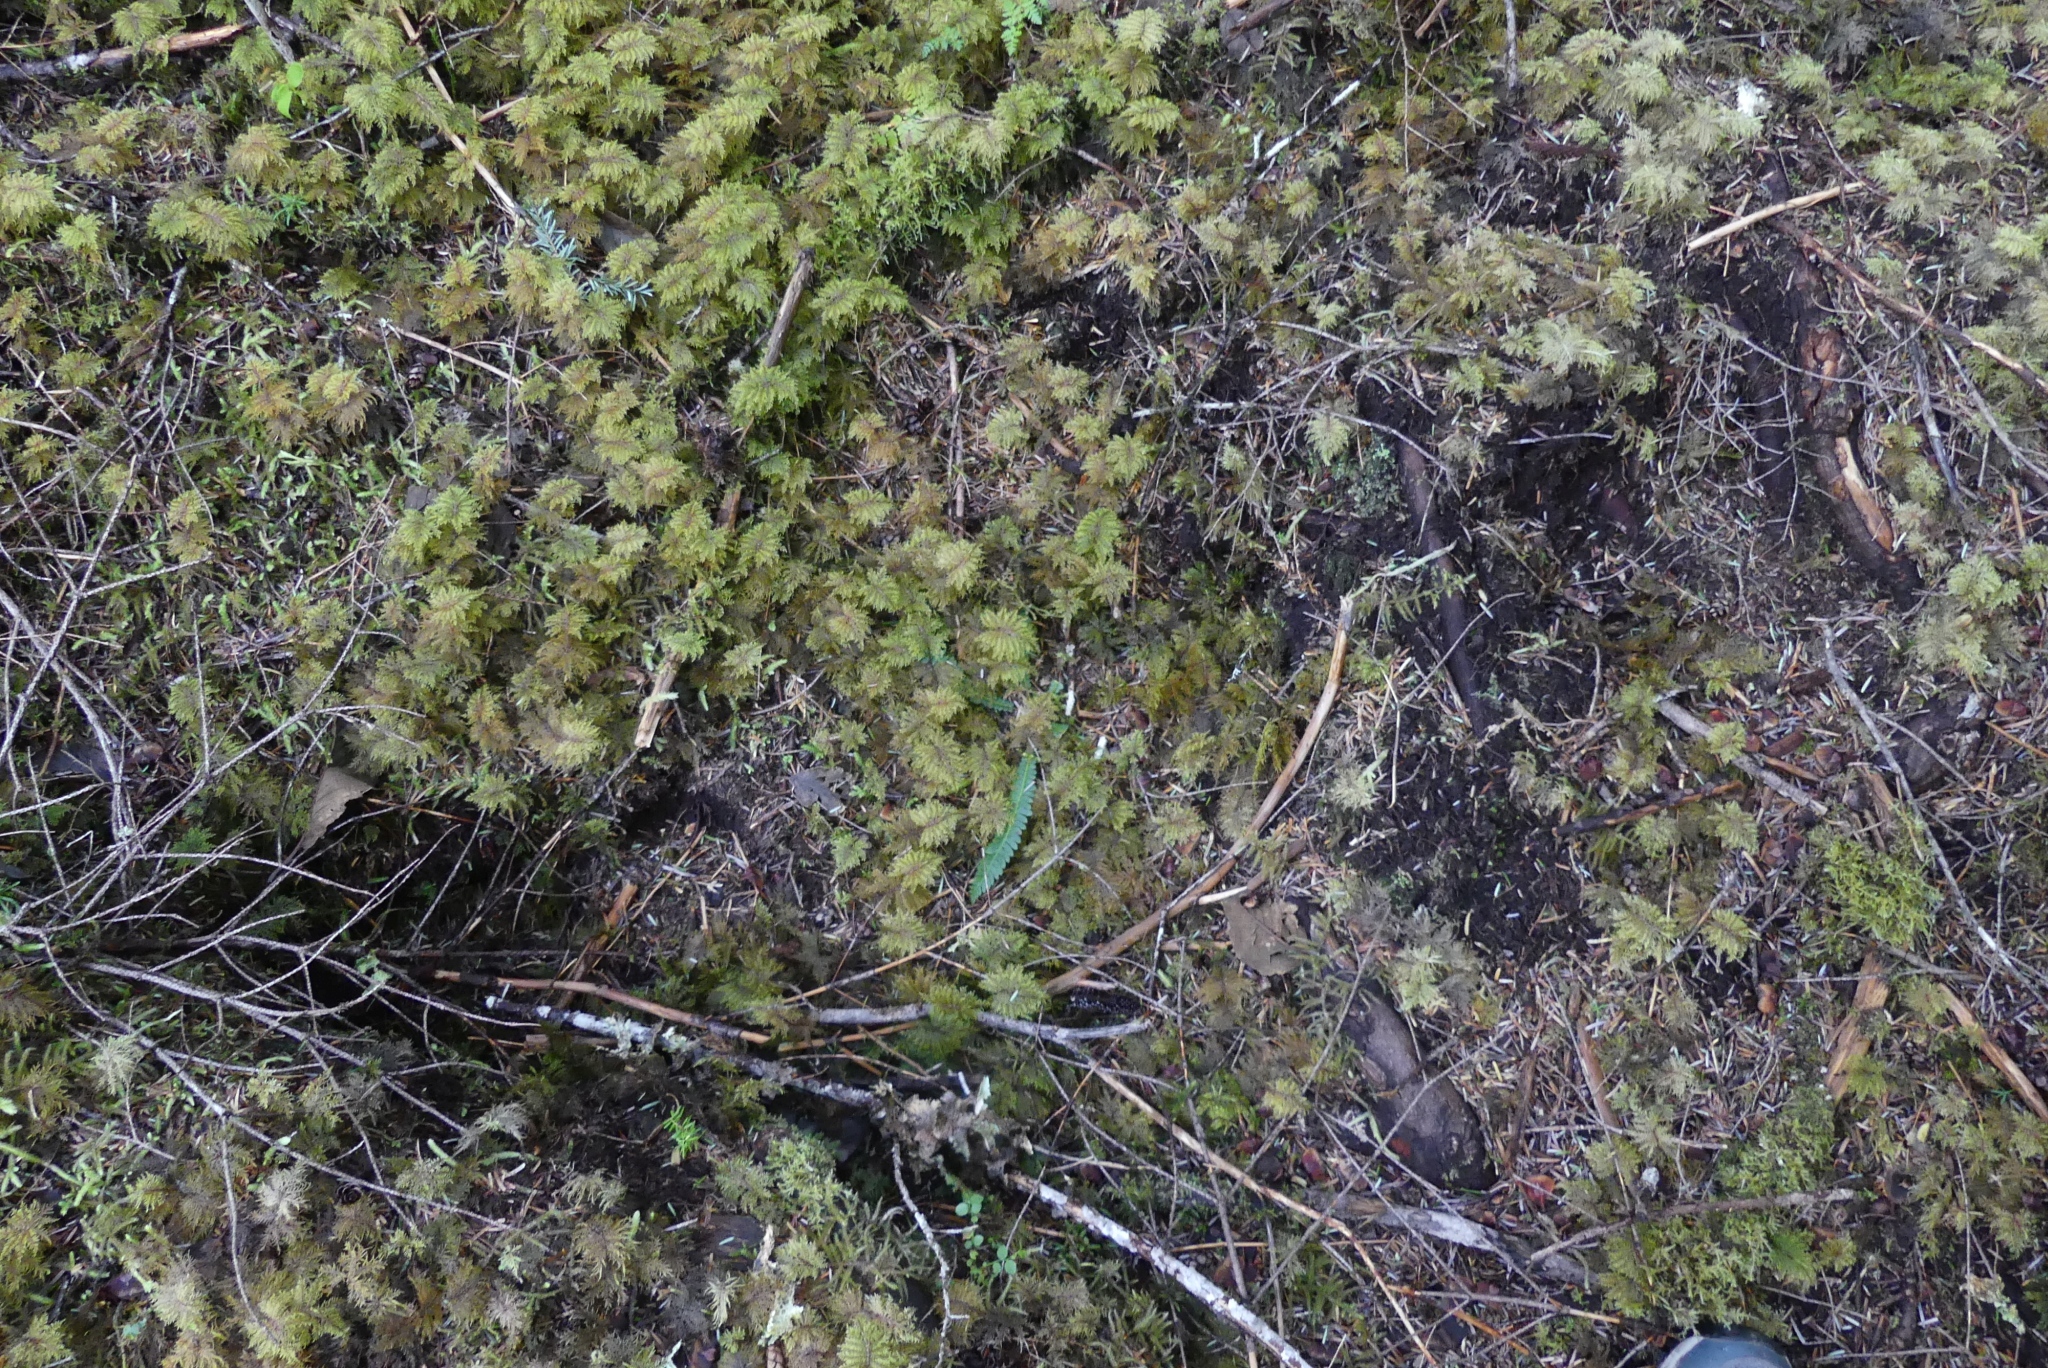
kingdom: Plantae
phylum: Tracheophyta
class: Polypodiopsida
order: Polypodiales
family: Blechnaceae
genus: Struthiopteris
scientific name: Struthiopteris spicant
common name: Deer fern
